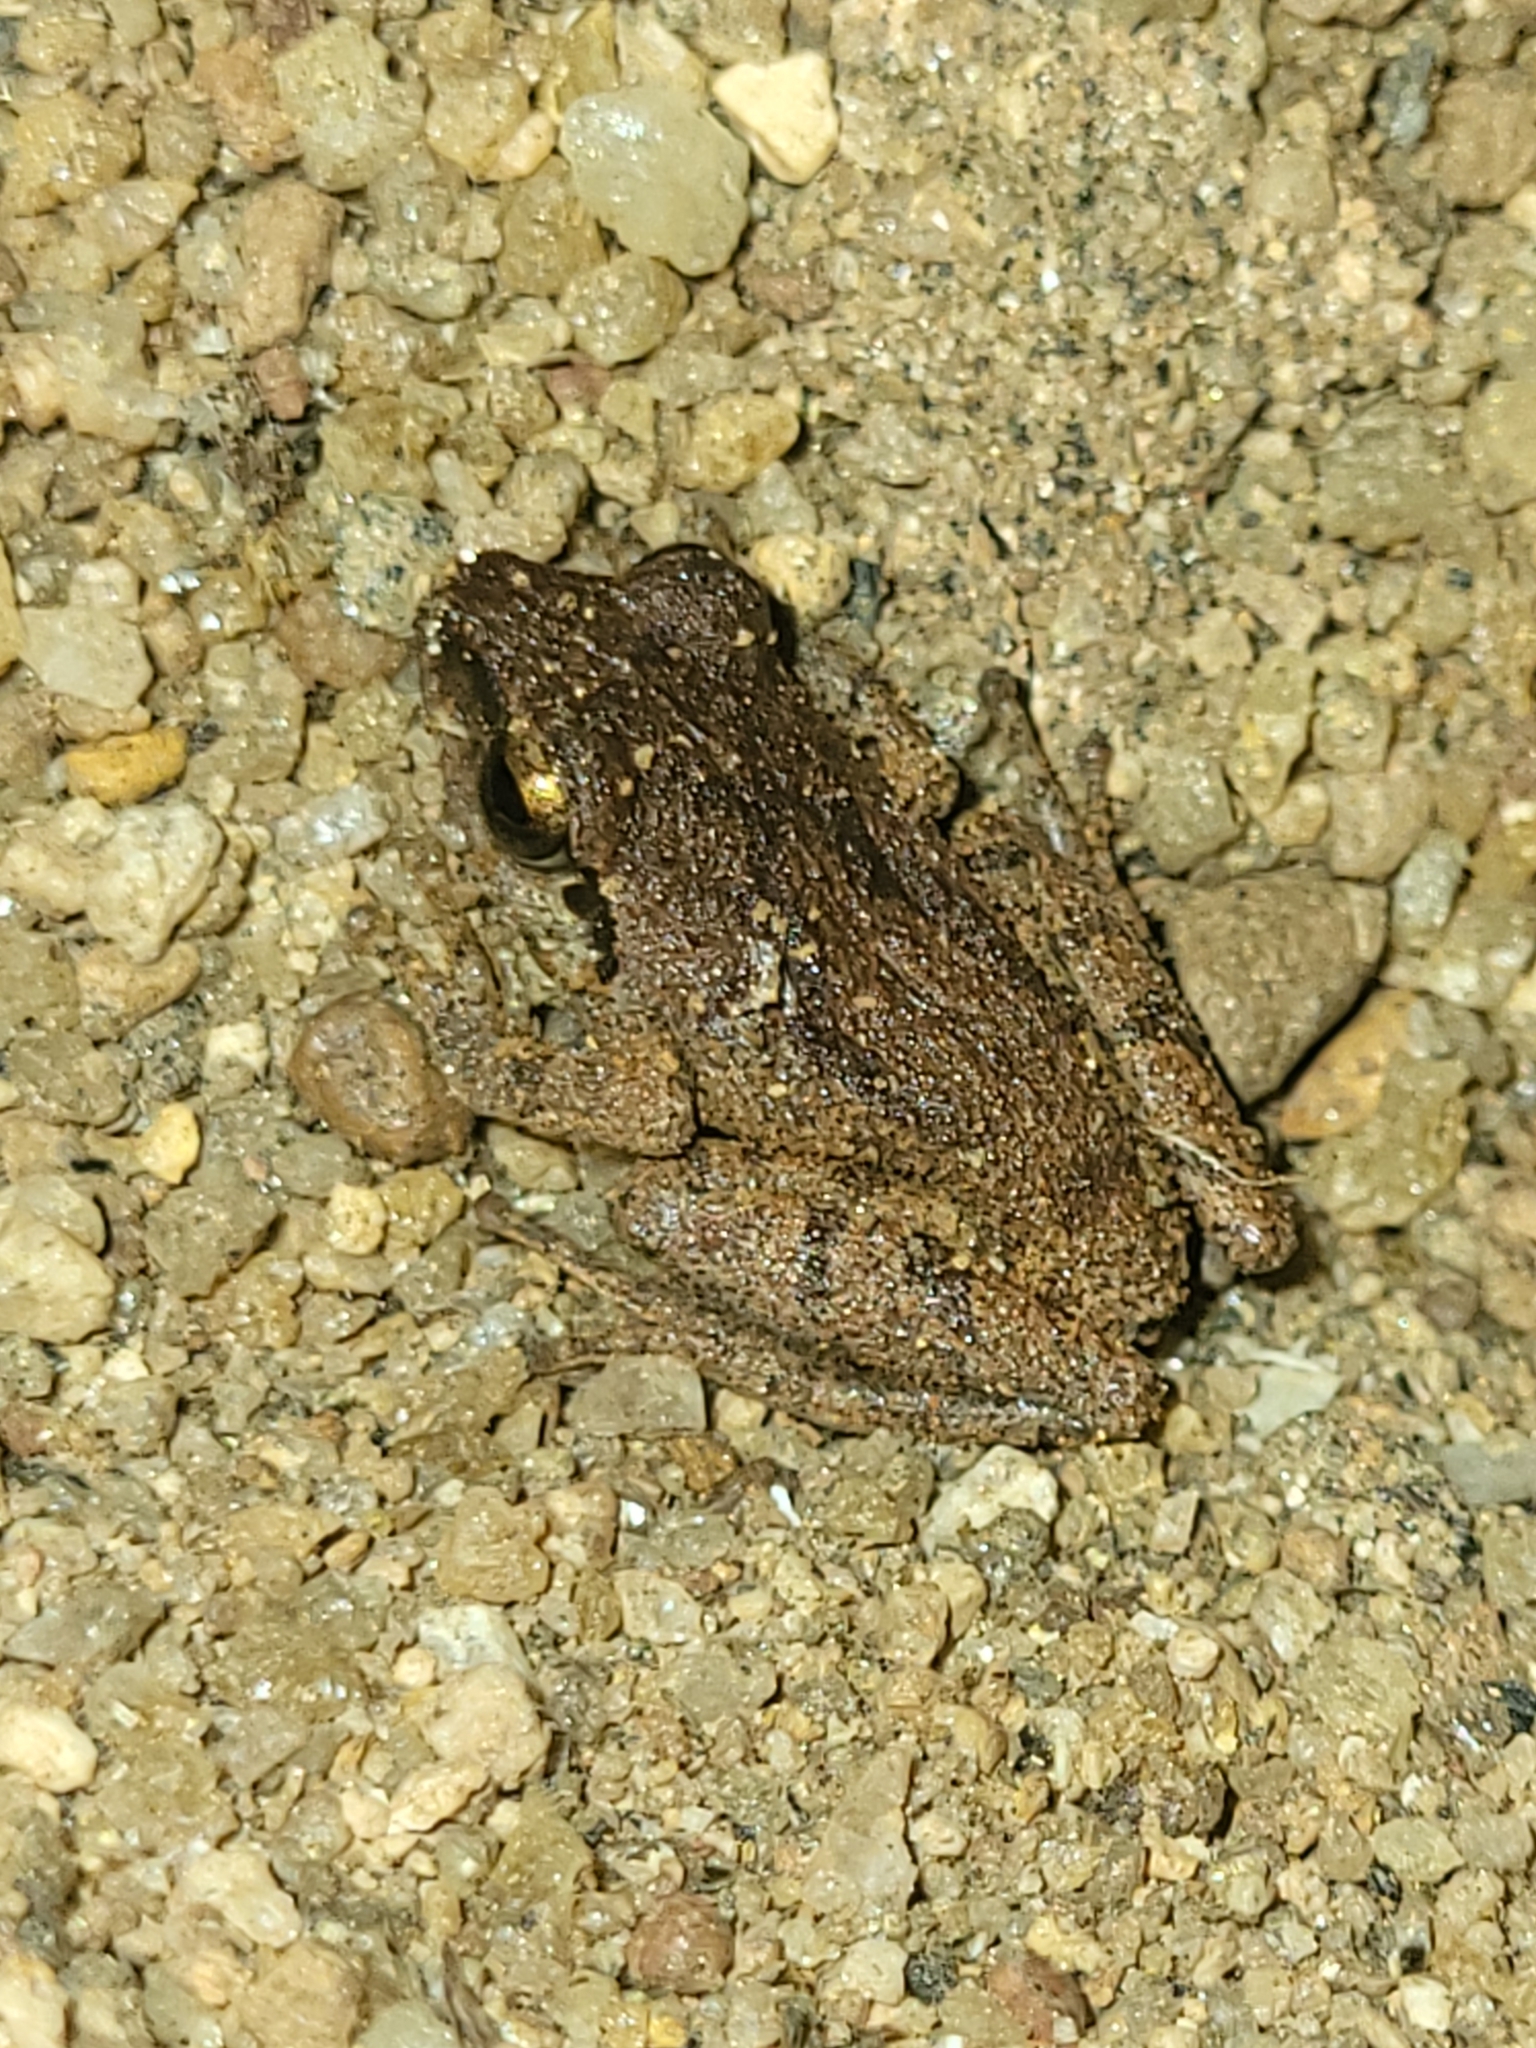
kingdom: Animalia
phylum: Chordata
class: Amphibia
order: Anura
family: Rhacophoridae
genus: Pseudophilautus
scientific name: Pseudophilautus wynaadensis
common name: Dark-eared bush frog
